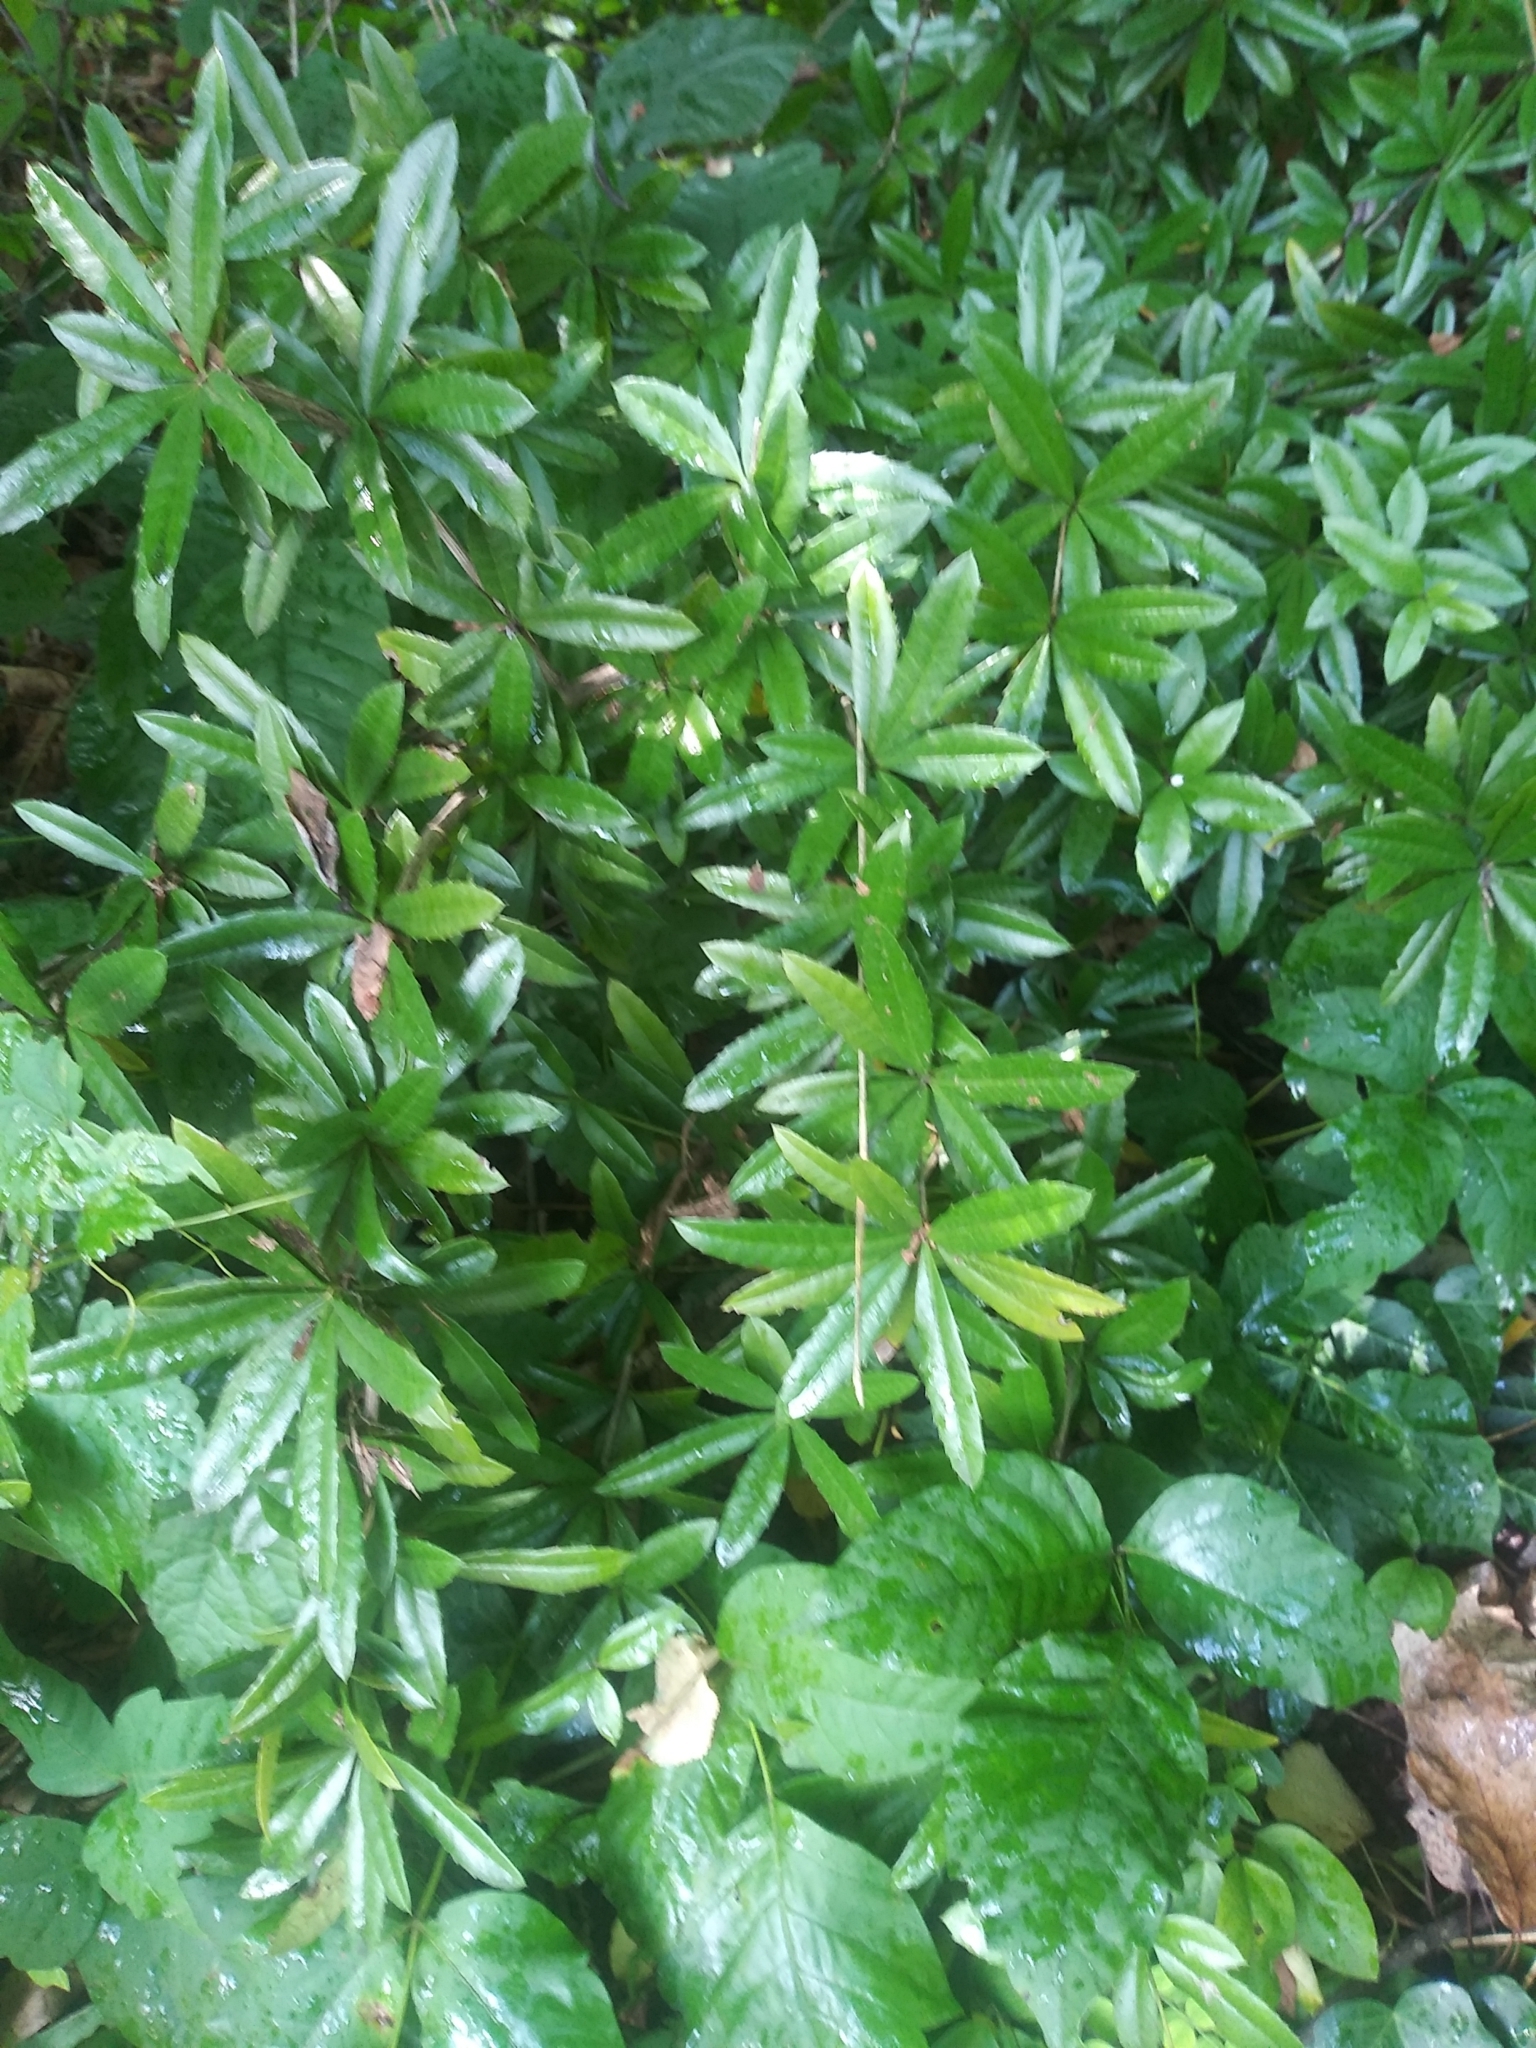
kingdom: Plantae
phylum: Tracheophyta
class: Magnoliopsida
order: Ranunculales
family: Berberidaceae
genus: Berberis
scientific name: Berberis julianae
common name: Wintergreen barberry
